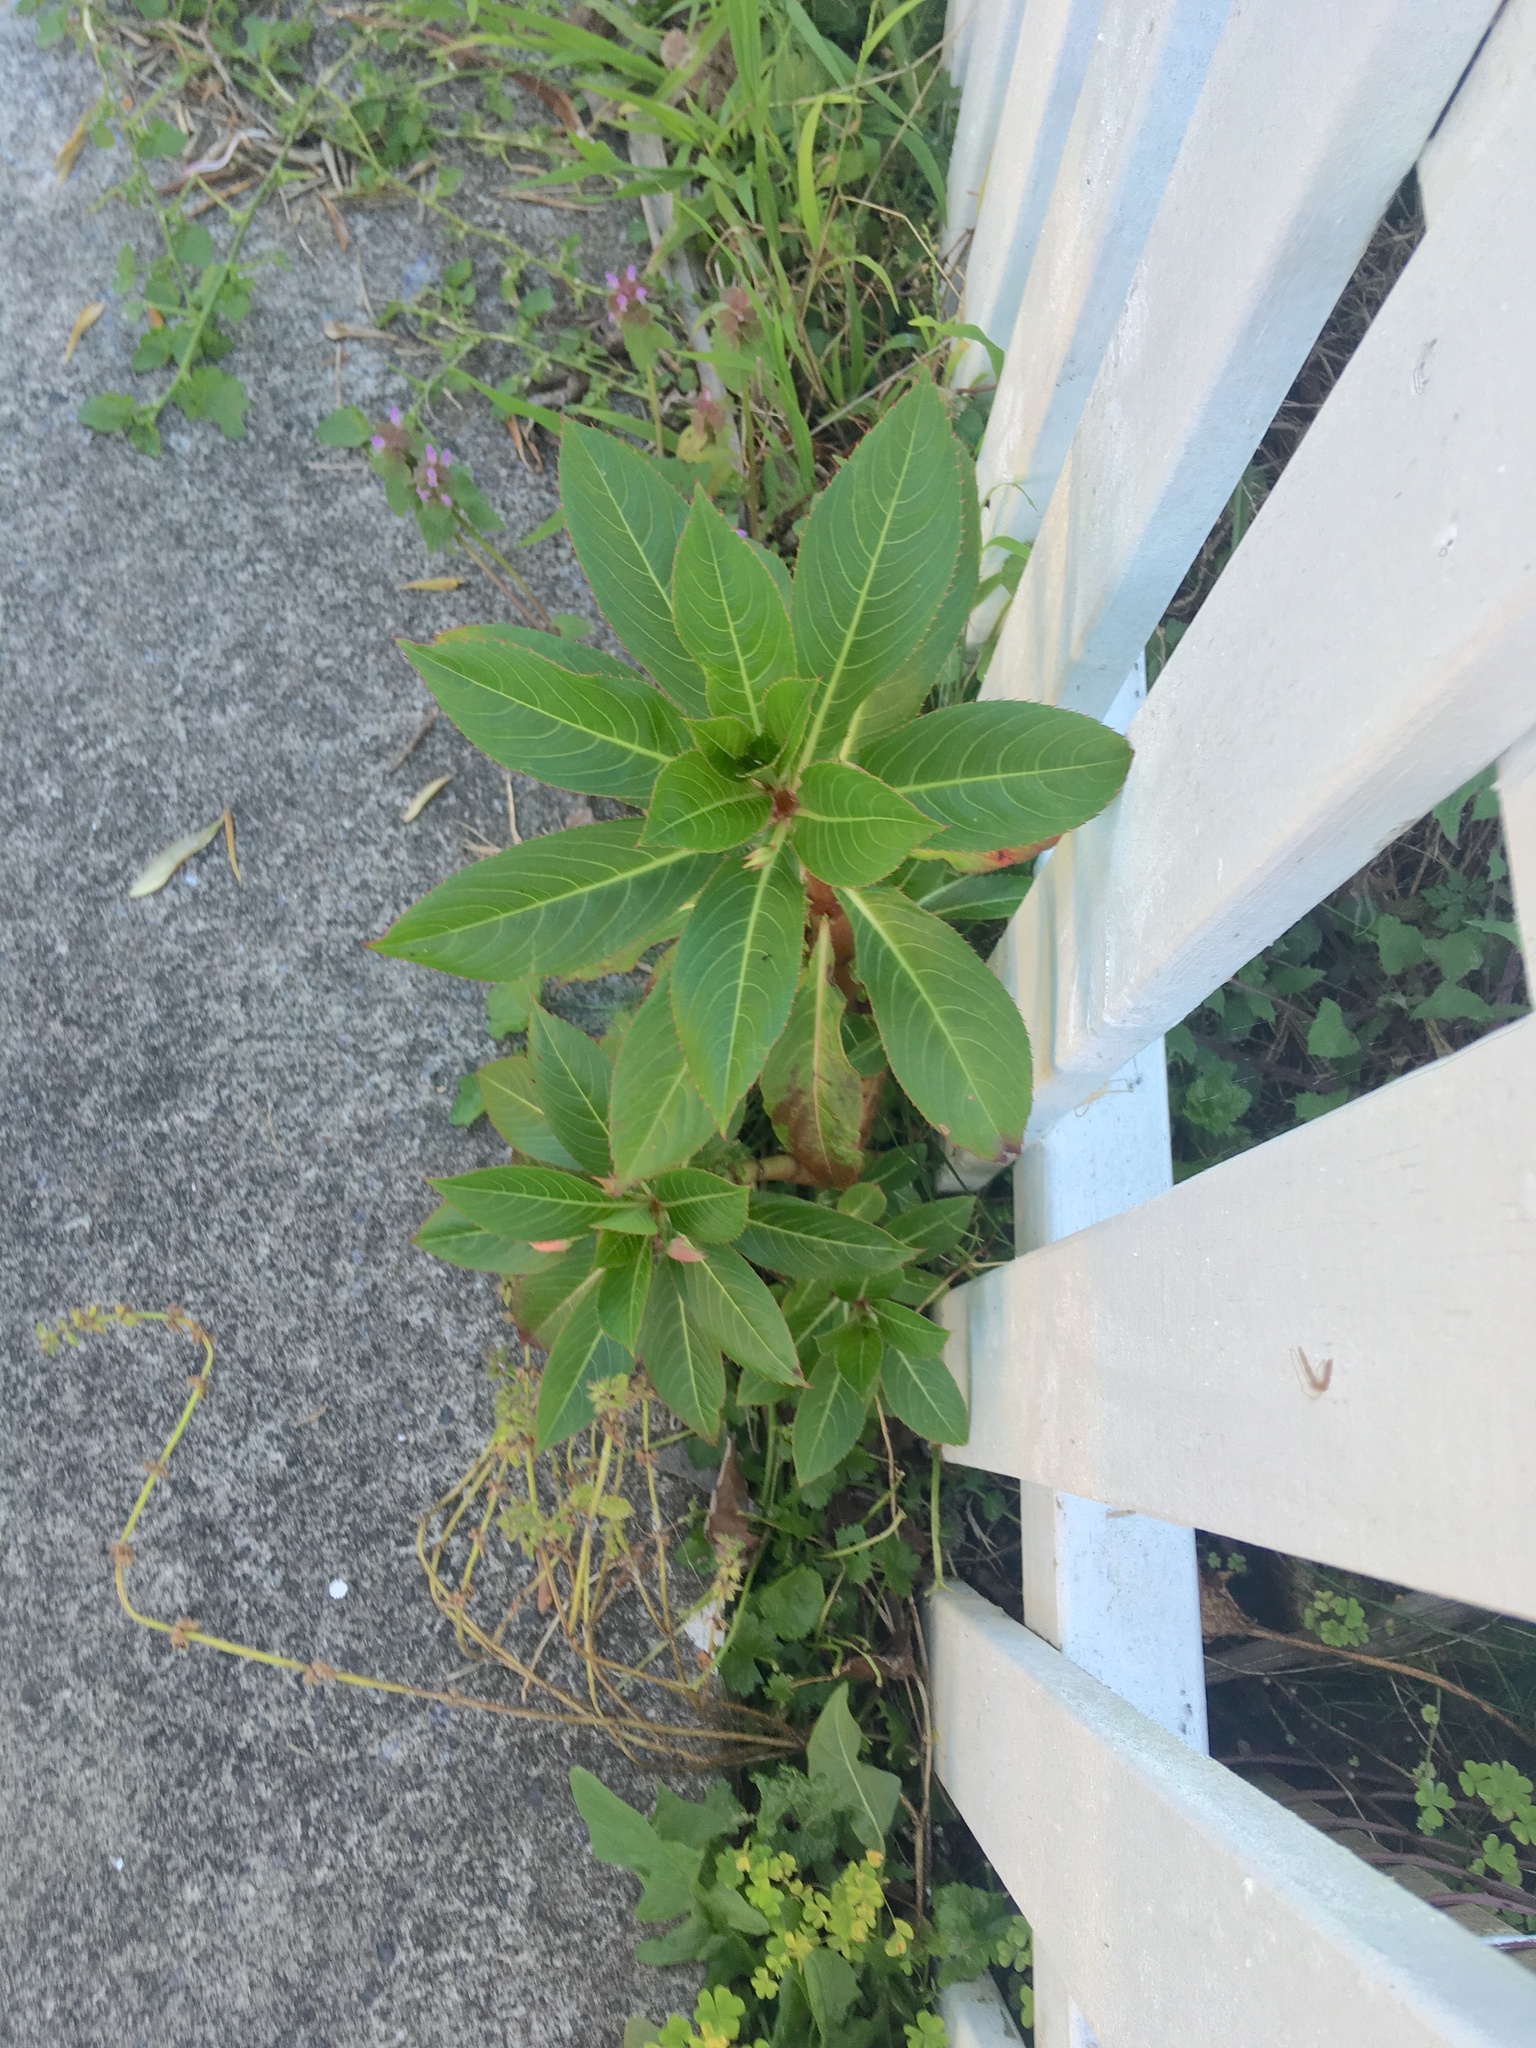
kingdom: Plantae
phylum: Tracheophyta
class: Magnoliopsida
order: Ericales
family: Balsaminaceae
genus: Impatiens
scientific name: Impatiens sodenii
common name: Oliver's touch-me-not
